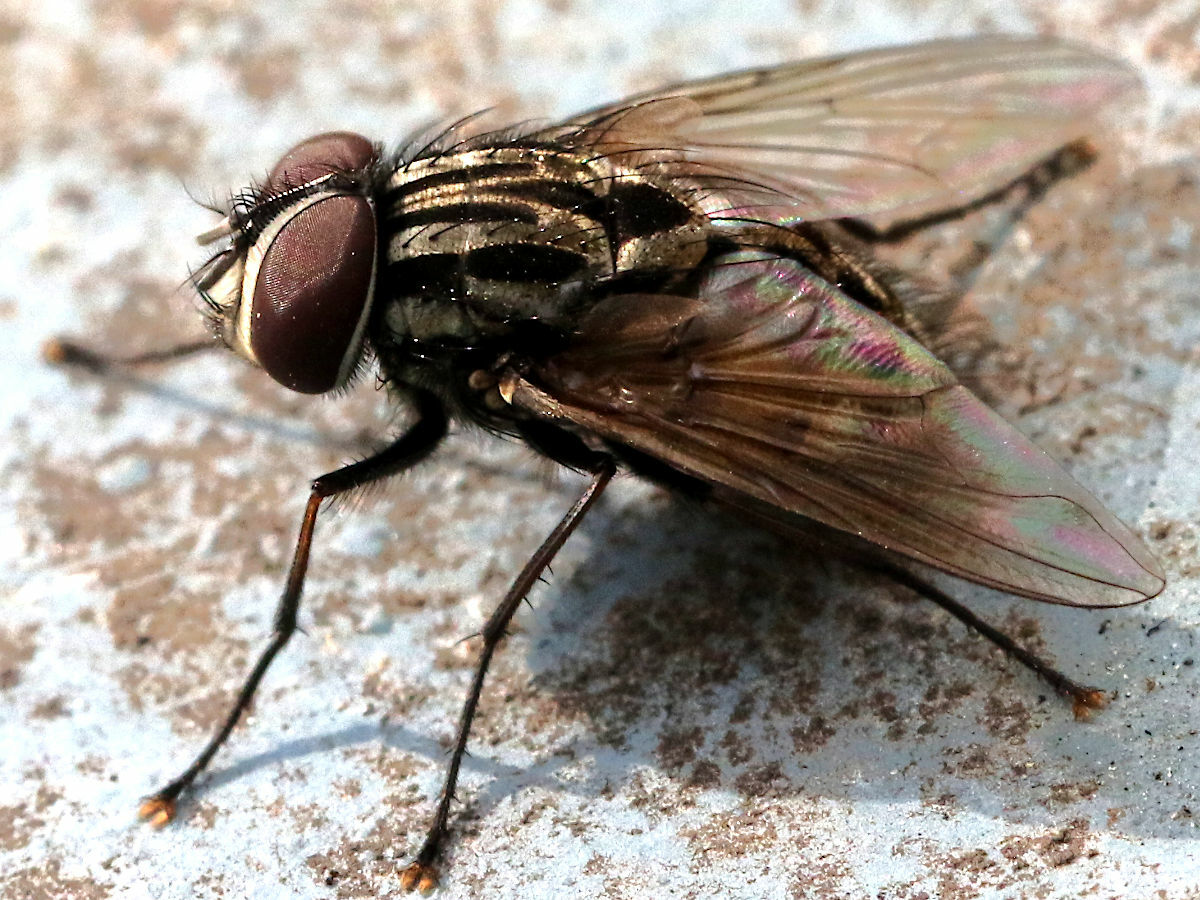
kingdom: Animalia
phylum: Arthropoda
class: Insecta
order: Diptera
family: Muscidae
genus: Graphomya
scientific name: Graphomya rufitibia
